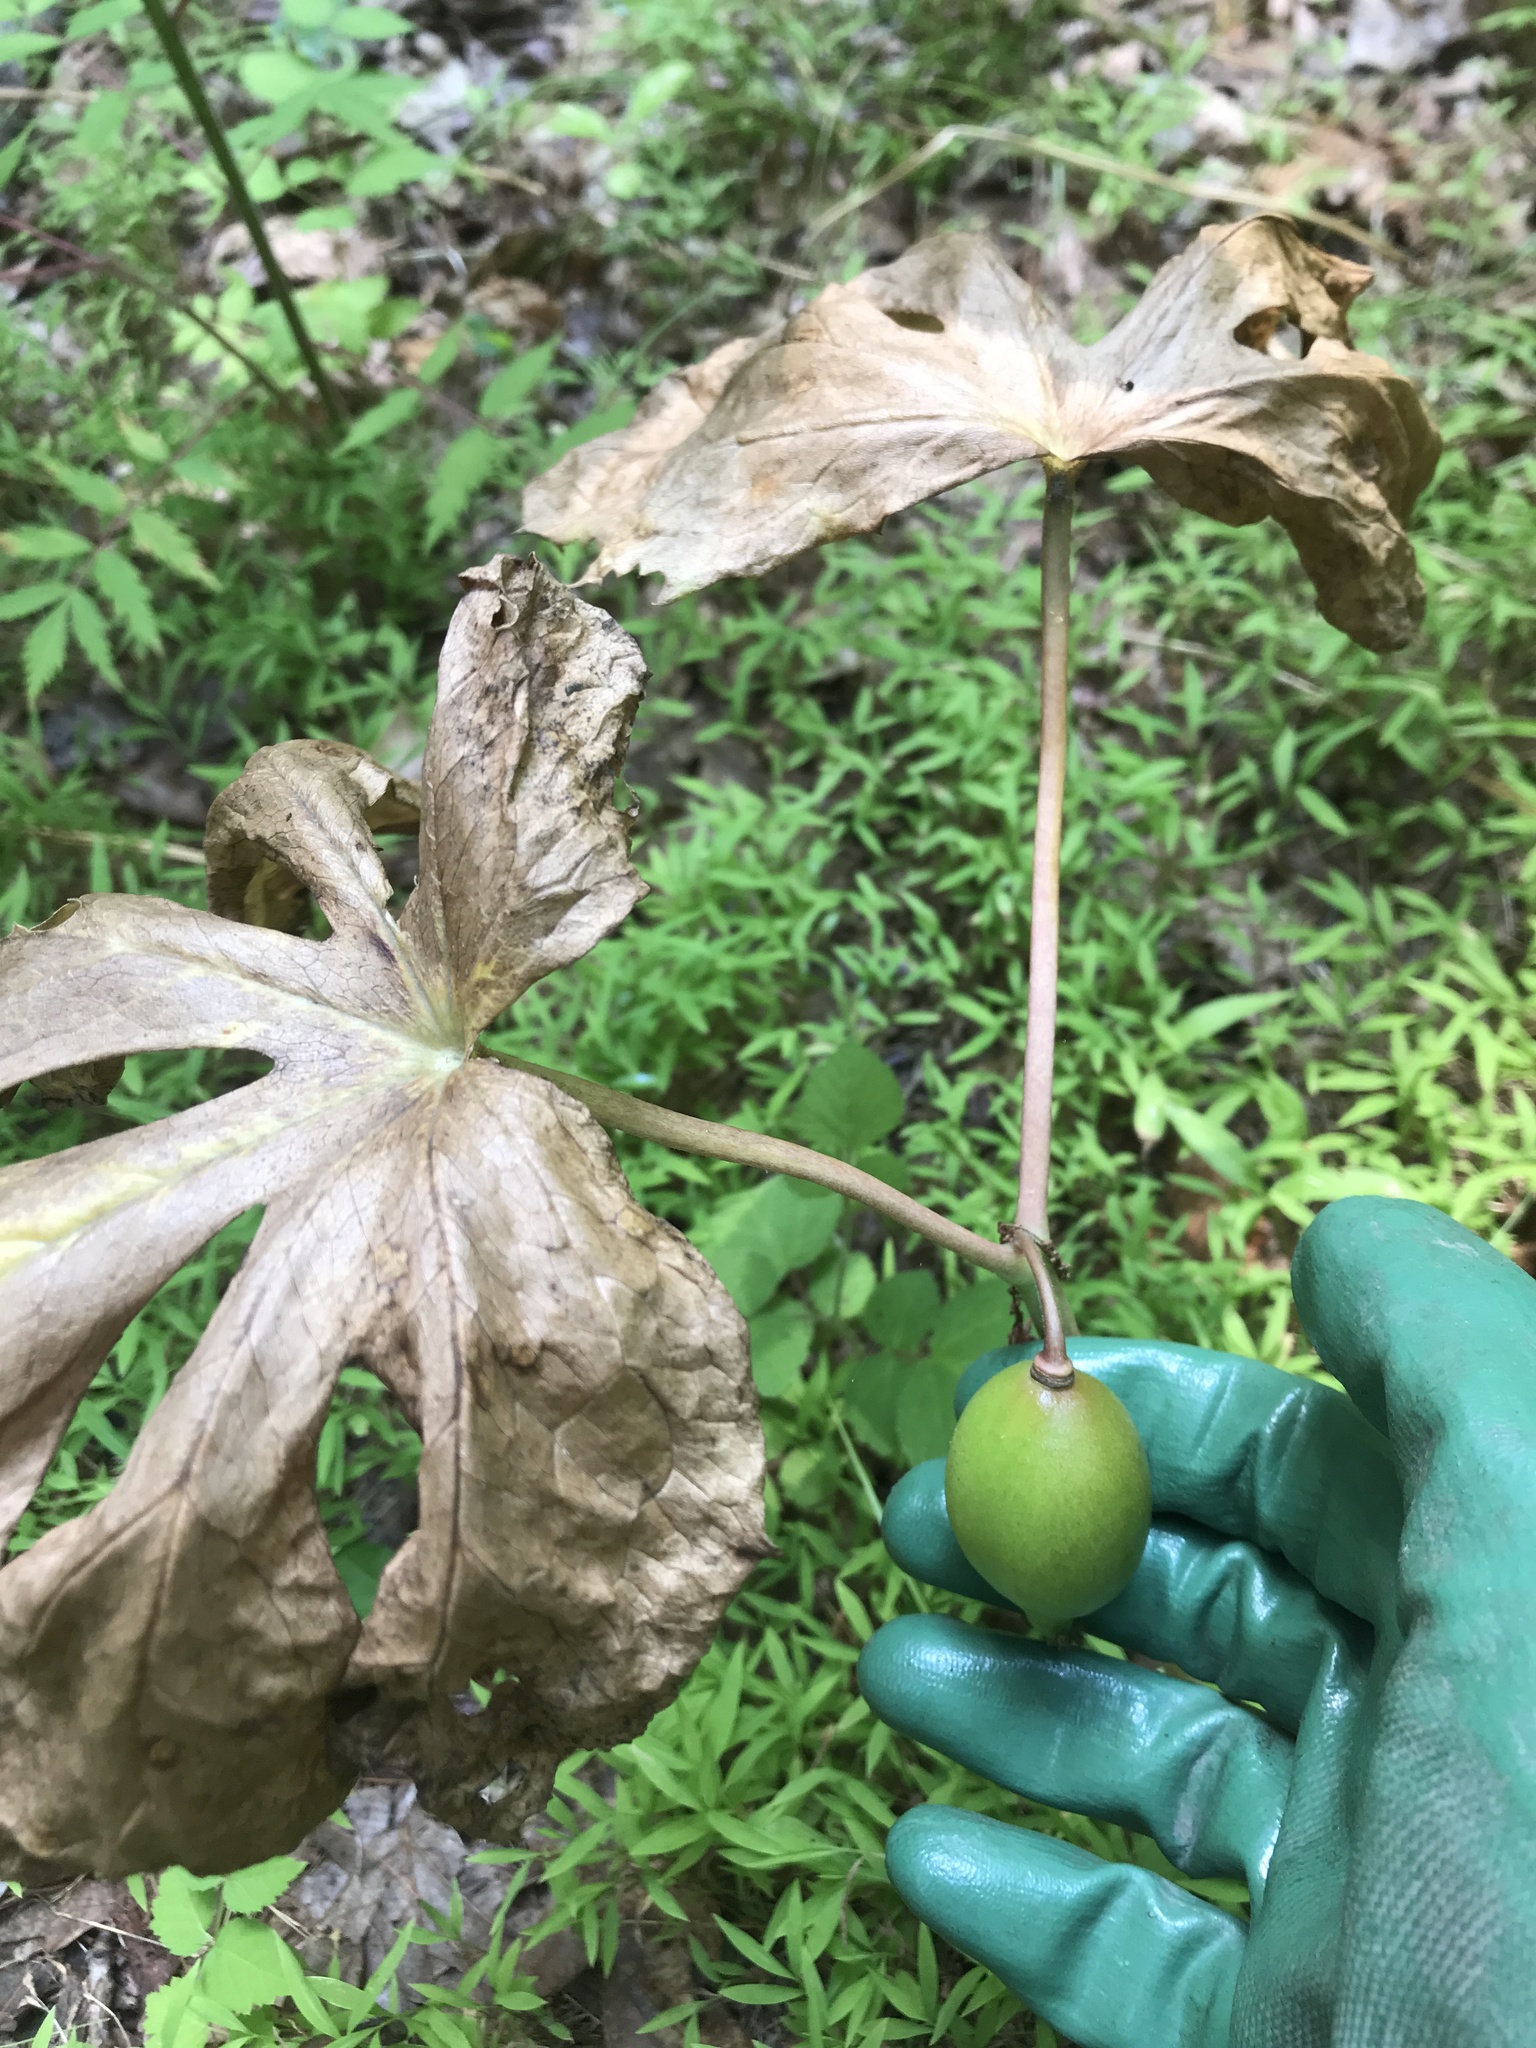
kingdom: Plantae
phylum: Tracheophyta
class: Magnoliopsida
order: Ranunculales
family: Berberidaceae
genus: Podophyllum
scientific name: Podophyllum peltatum
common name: Wild mandrake
